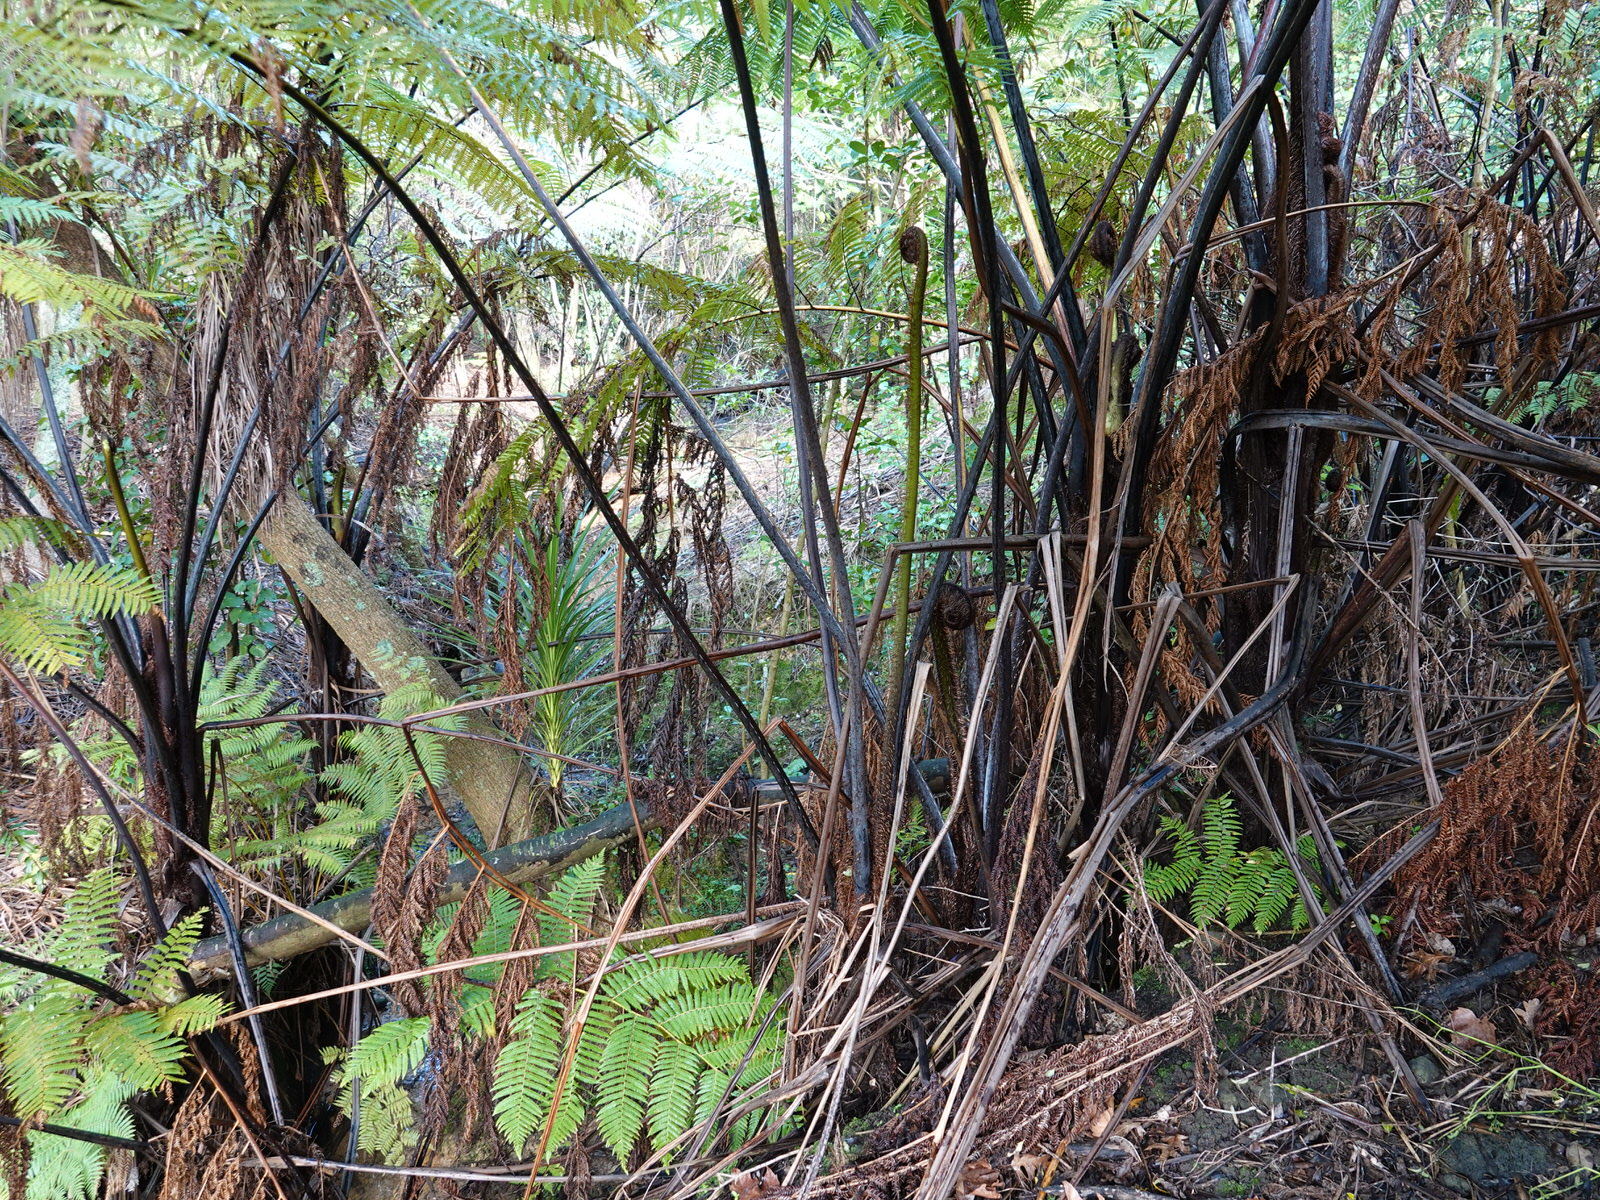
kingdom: Plantae
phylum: Tracheophyta
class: Polypodiopsida
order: Cyatheales
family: Cyatheaceae
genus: Sphaeropteris
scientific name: Sphaeropteris medullaris
